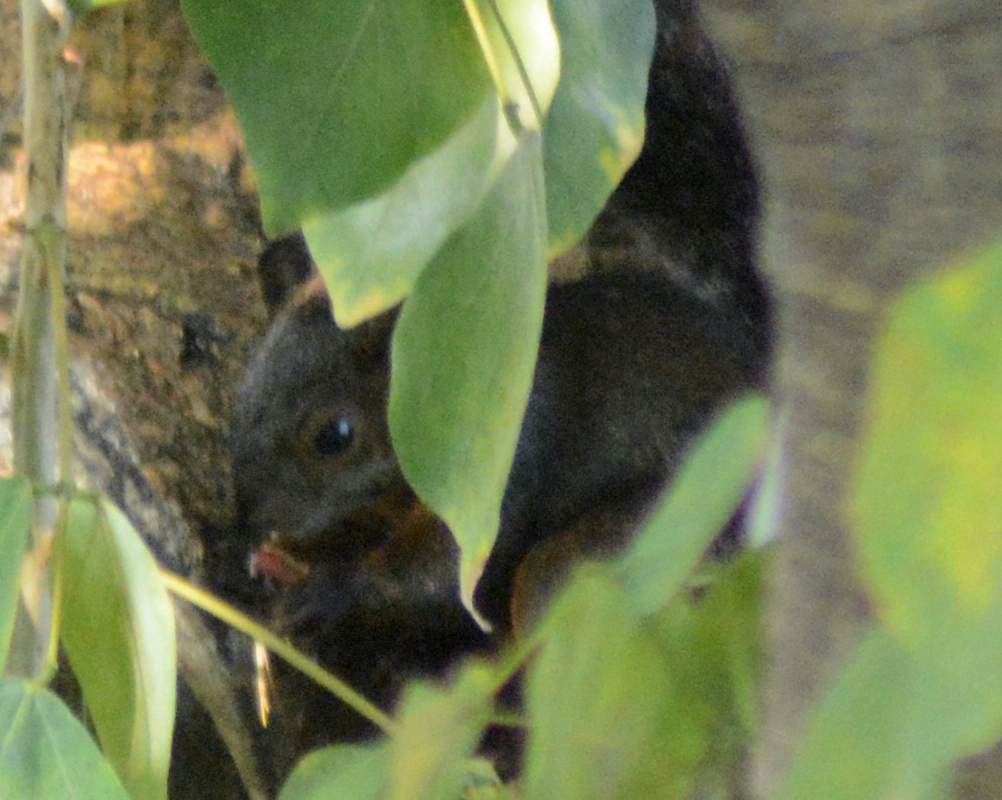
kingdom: Animalia
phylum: Chordata
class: Mammalia
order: Rodentia
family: Sciuridae
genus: Sciurus
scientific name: Sciurus aureogaster
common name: Red-bellied squirrel
